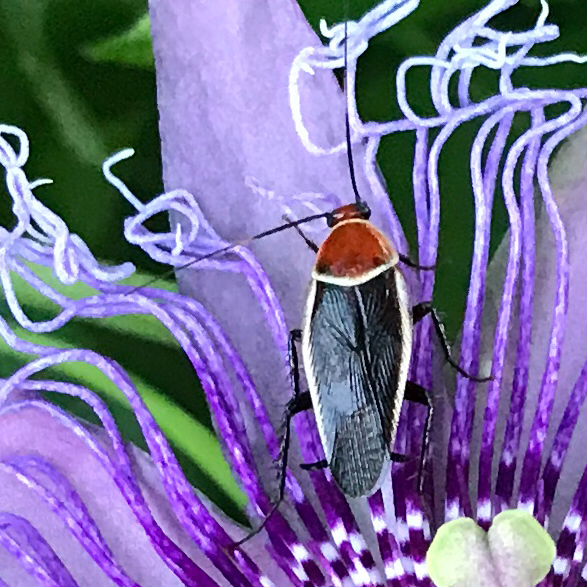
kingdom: Animalia
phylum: Arthropoda
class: Insecta
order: Blattodea
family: Ectobiidae
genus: Pseudomops
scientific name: Pseudomops septentrionalis
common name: Pale-bordered field cockroach
